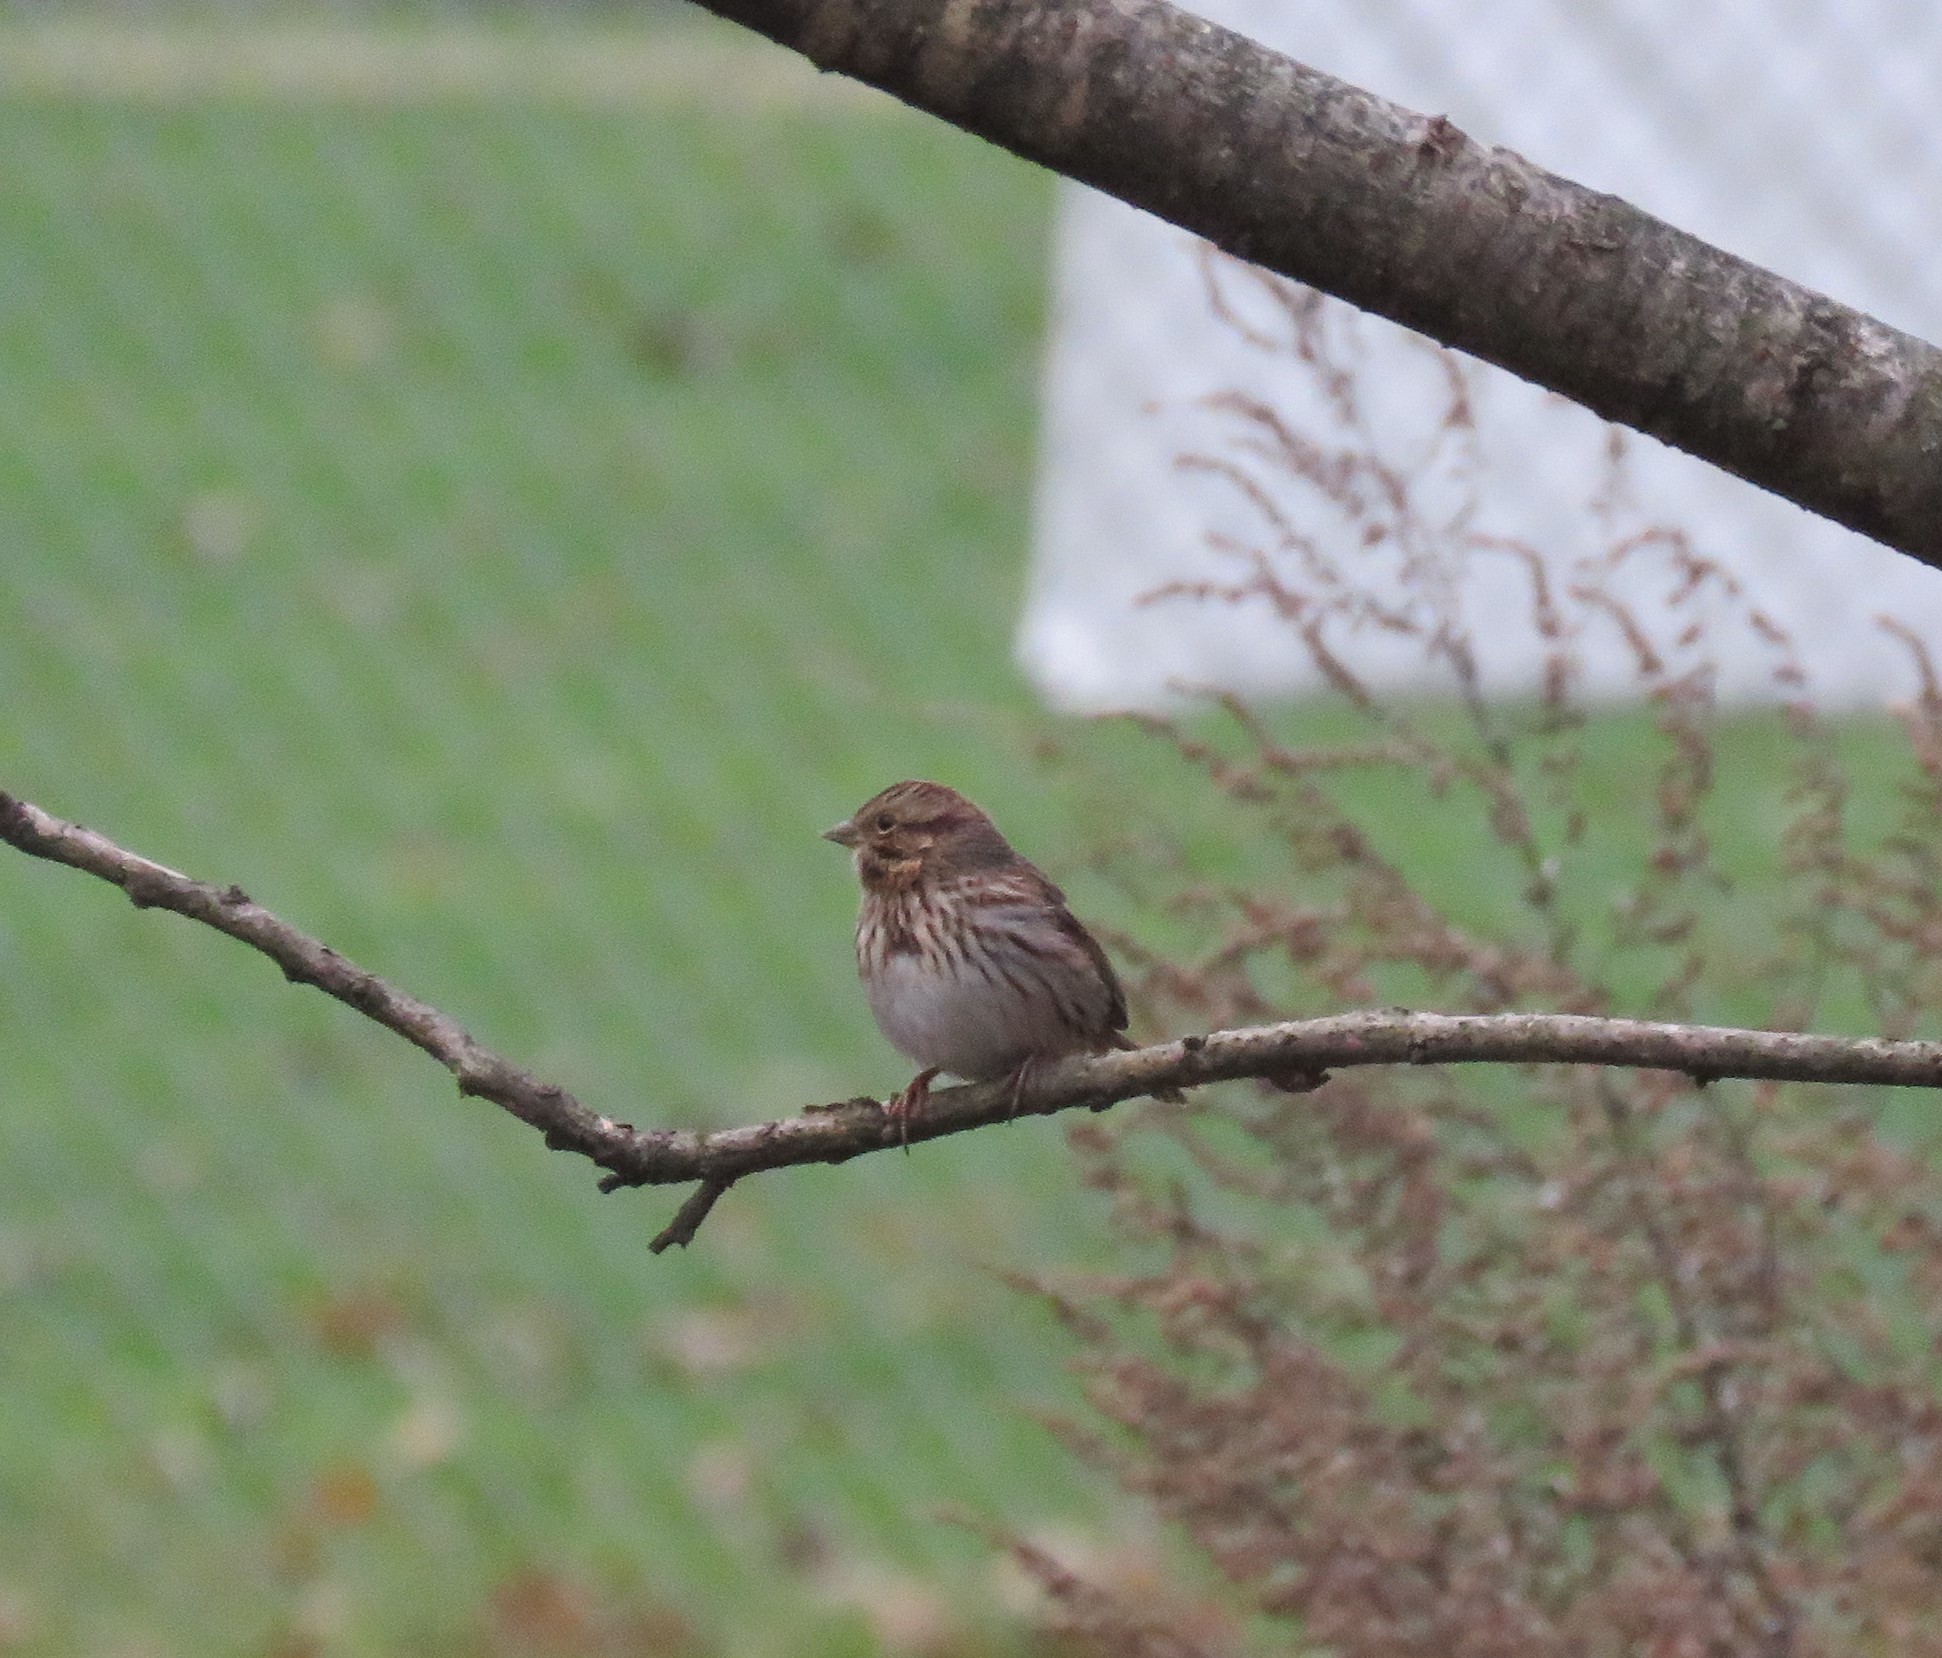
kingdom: Animalia
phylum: Chordata
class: Aves
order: Passeriformes
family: Passerellidae
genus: Melospiza
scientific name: Melospiza melodia
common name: Song sparrow
